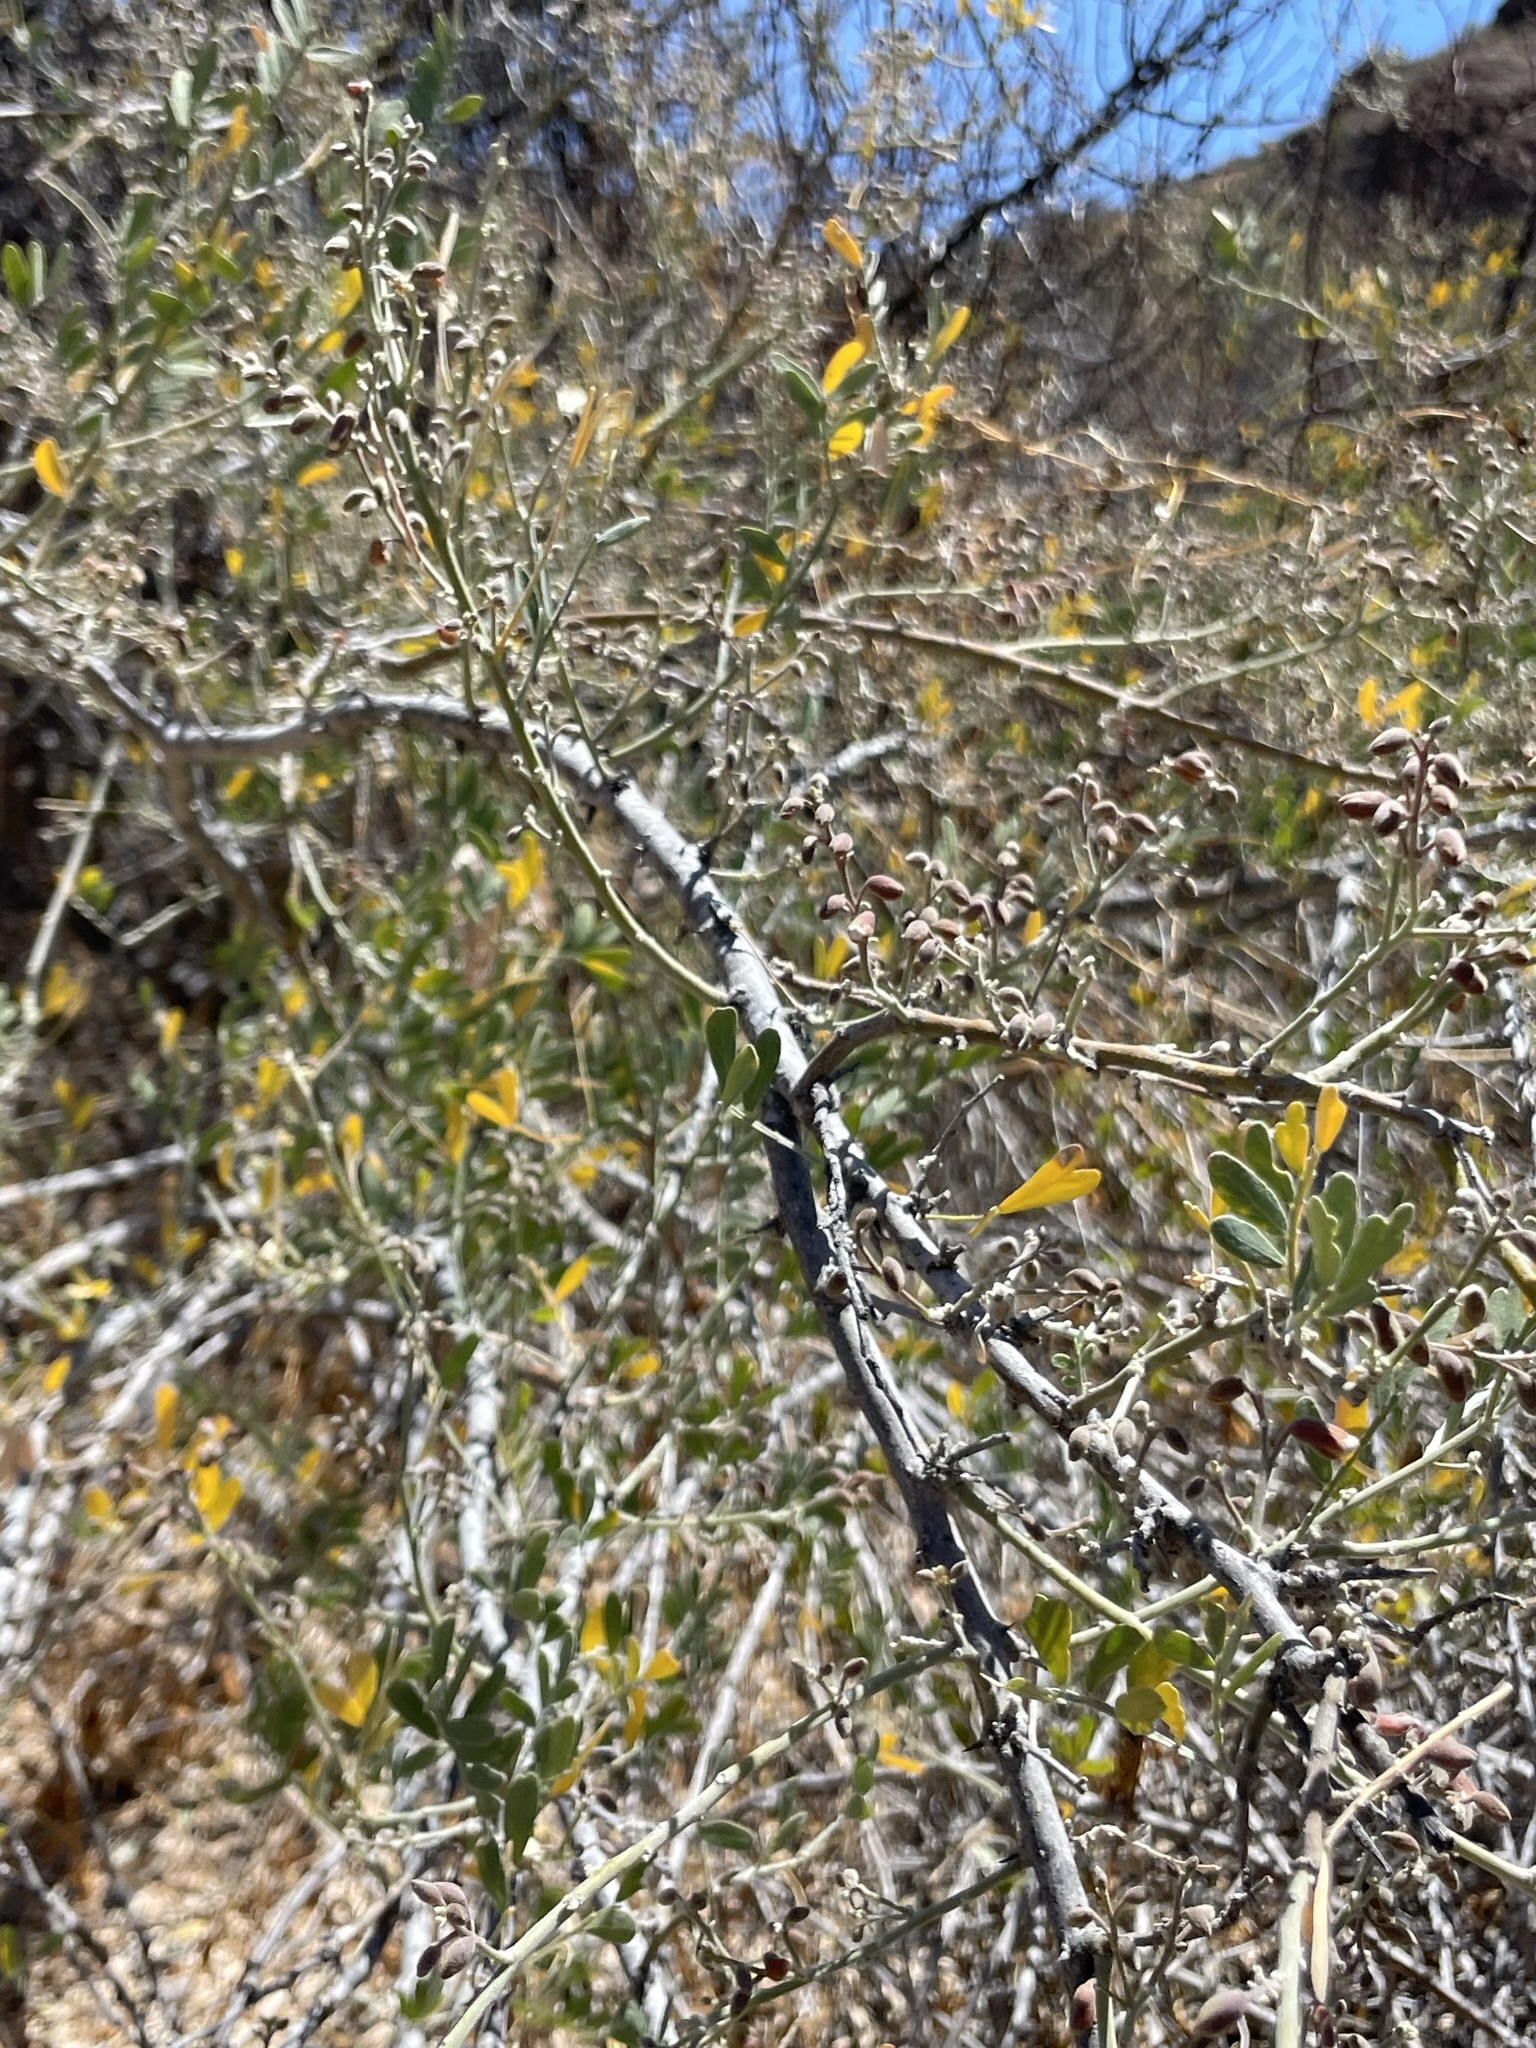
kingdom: Plantae
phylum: Tracheophyta
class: Magnoliopsida
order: Fabales
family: Fabaceae
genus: Olneya
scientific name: Olneya tesota
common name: Desert ironwood
